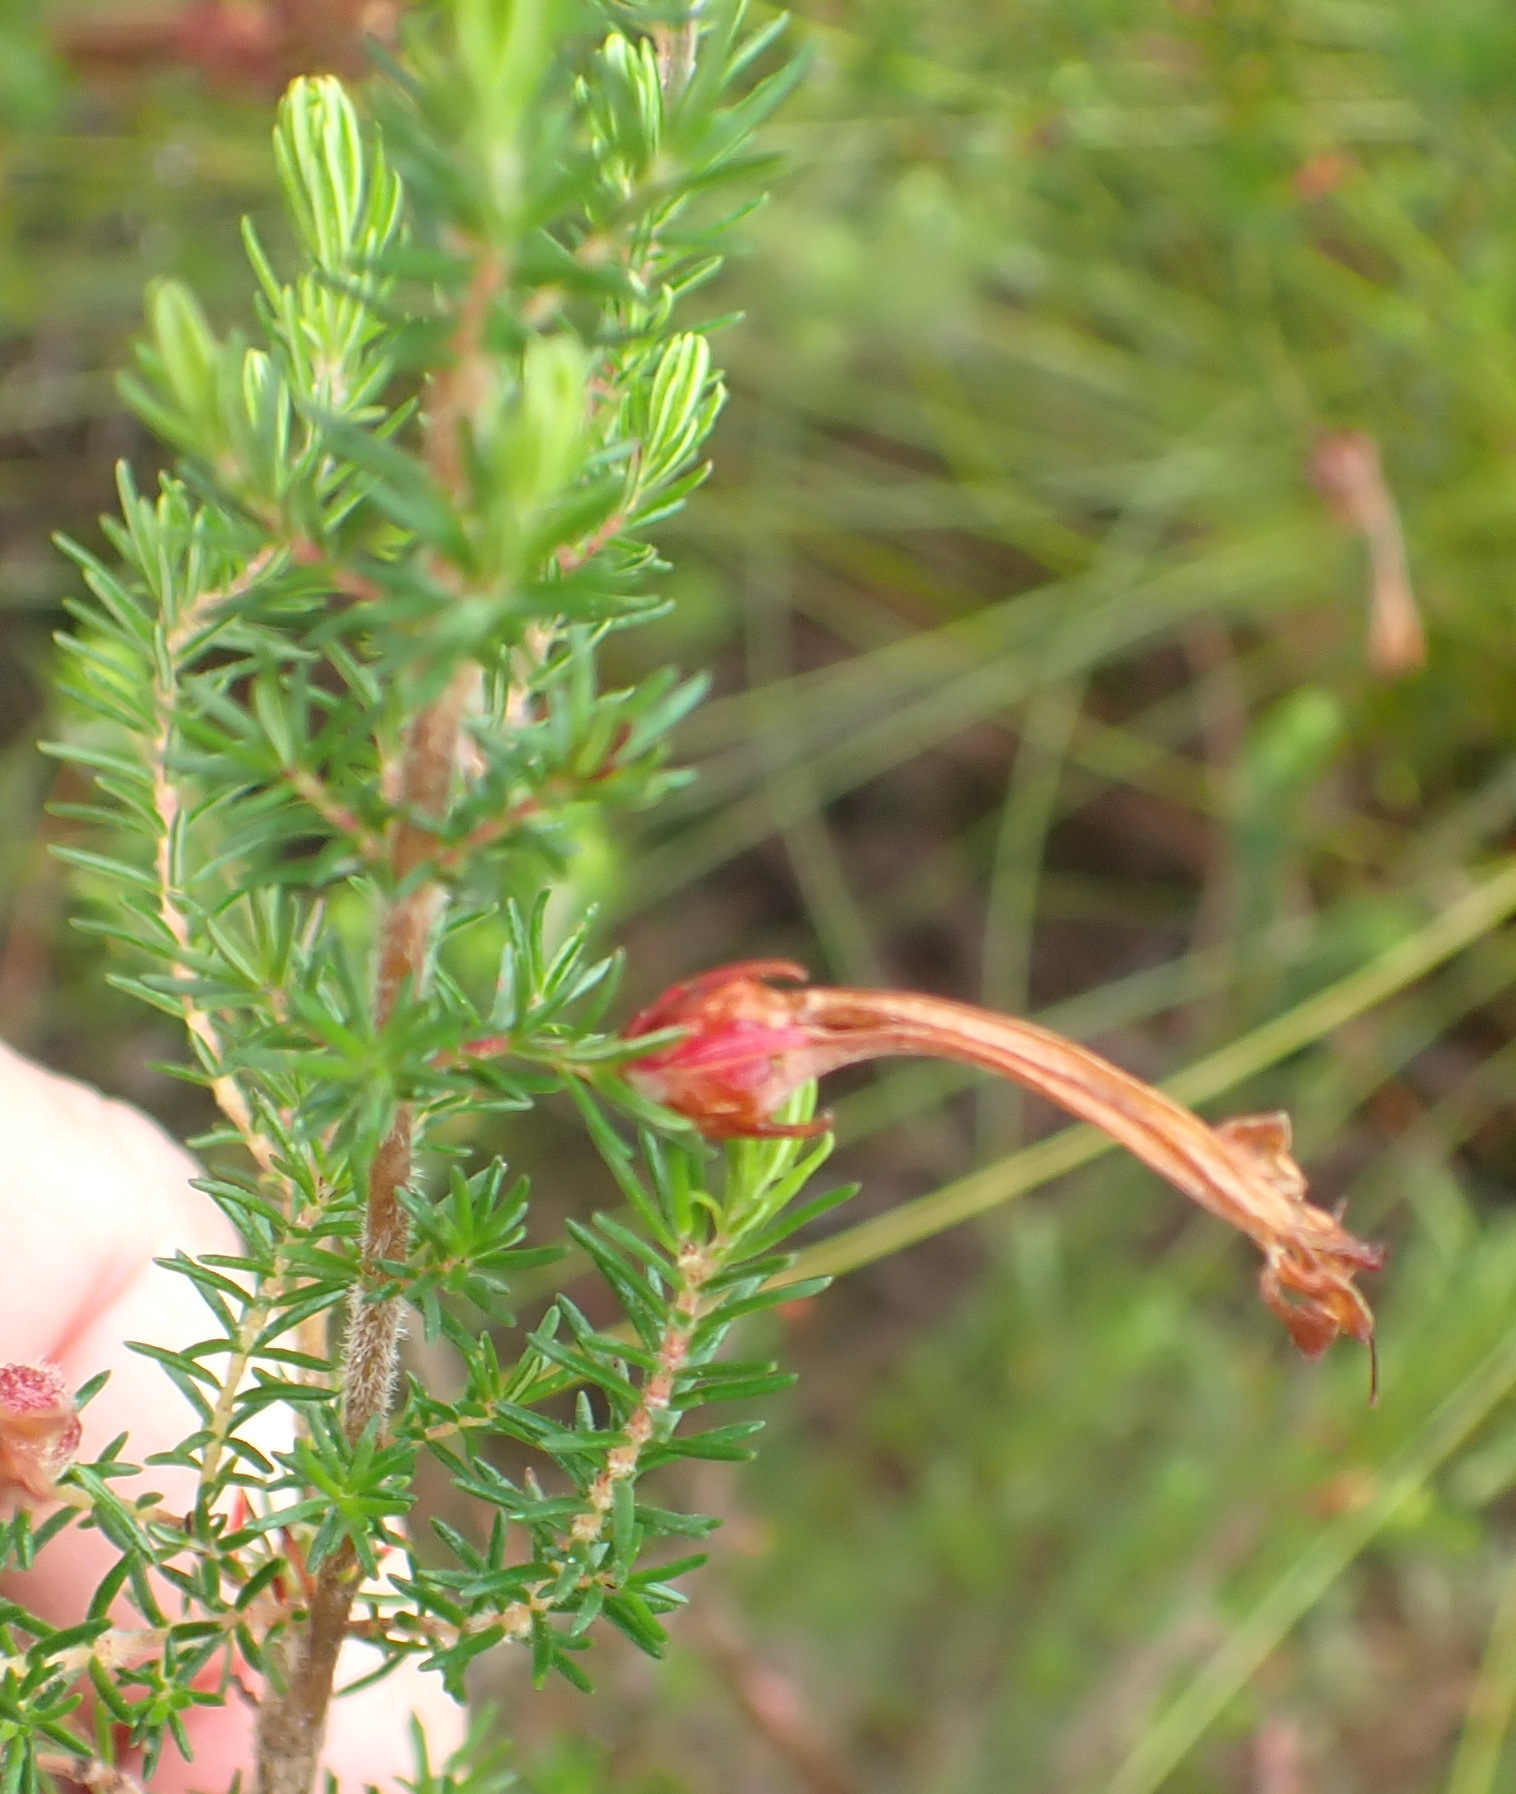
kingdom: Plantae
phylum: Tracheophyta
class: Magnoliopsida
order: Ericales
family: Ericaceae
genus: Erica
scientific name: Erica curviflora
